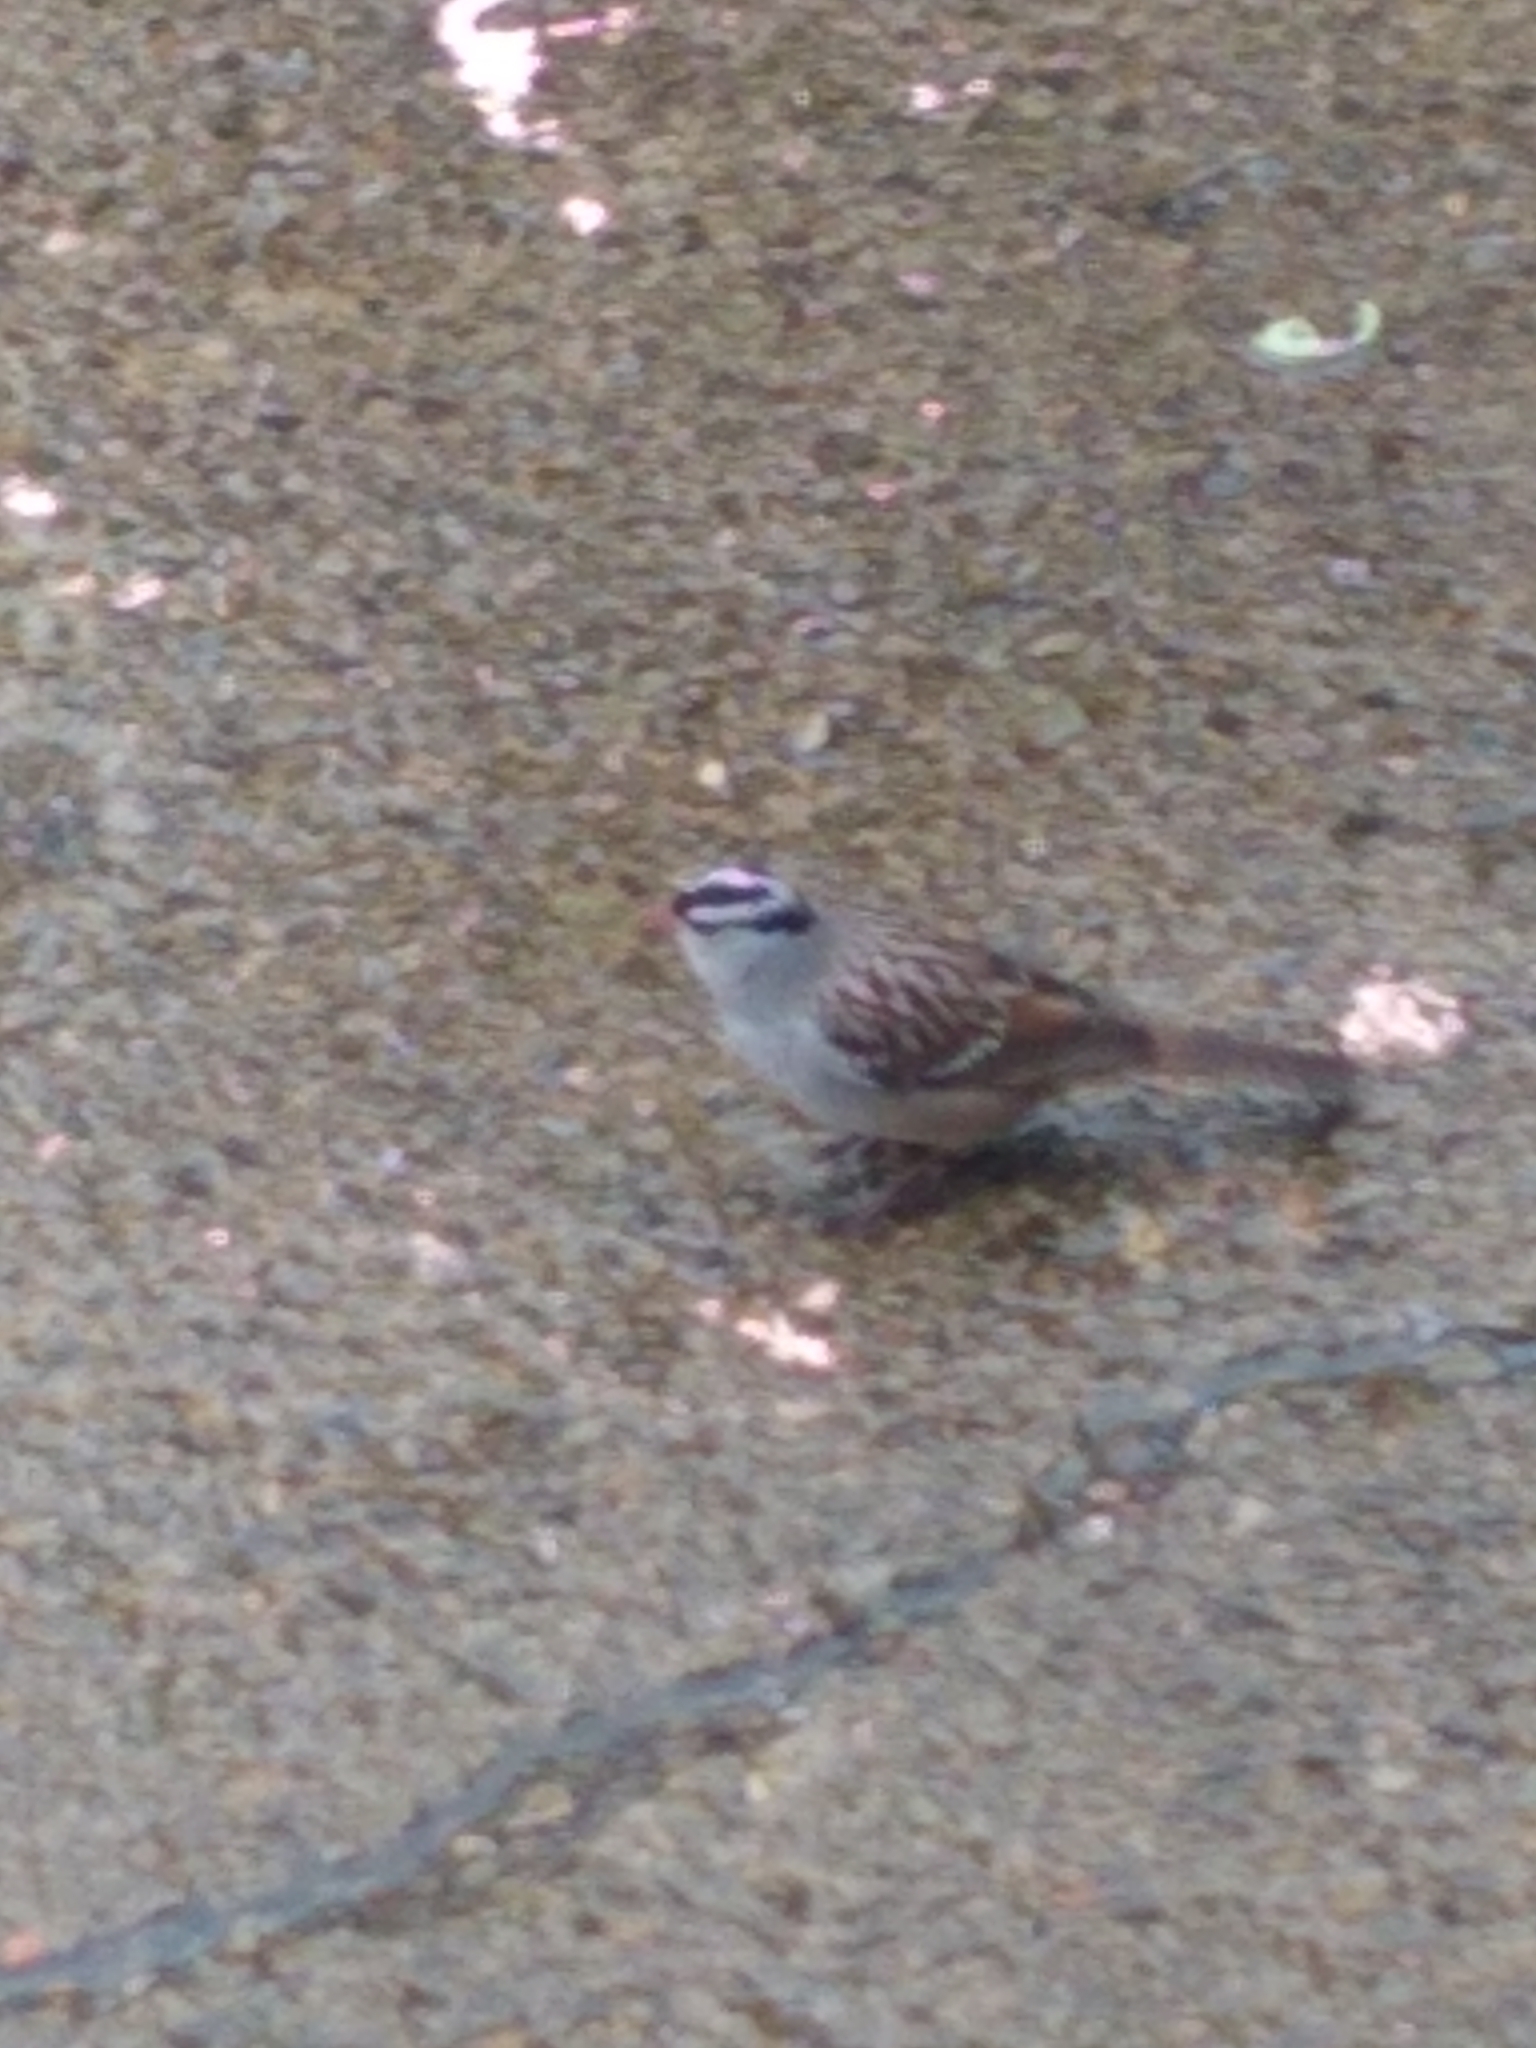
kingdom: Animalia
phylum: Chordata
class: Aves
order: Passeriformes
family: Passerellidae
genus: Zonotrichia
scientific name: Zonotrichia leucophrys
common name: White-crowned sparrow
